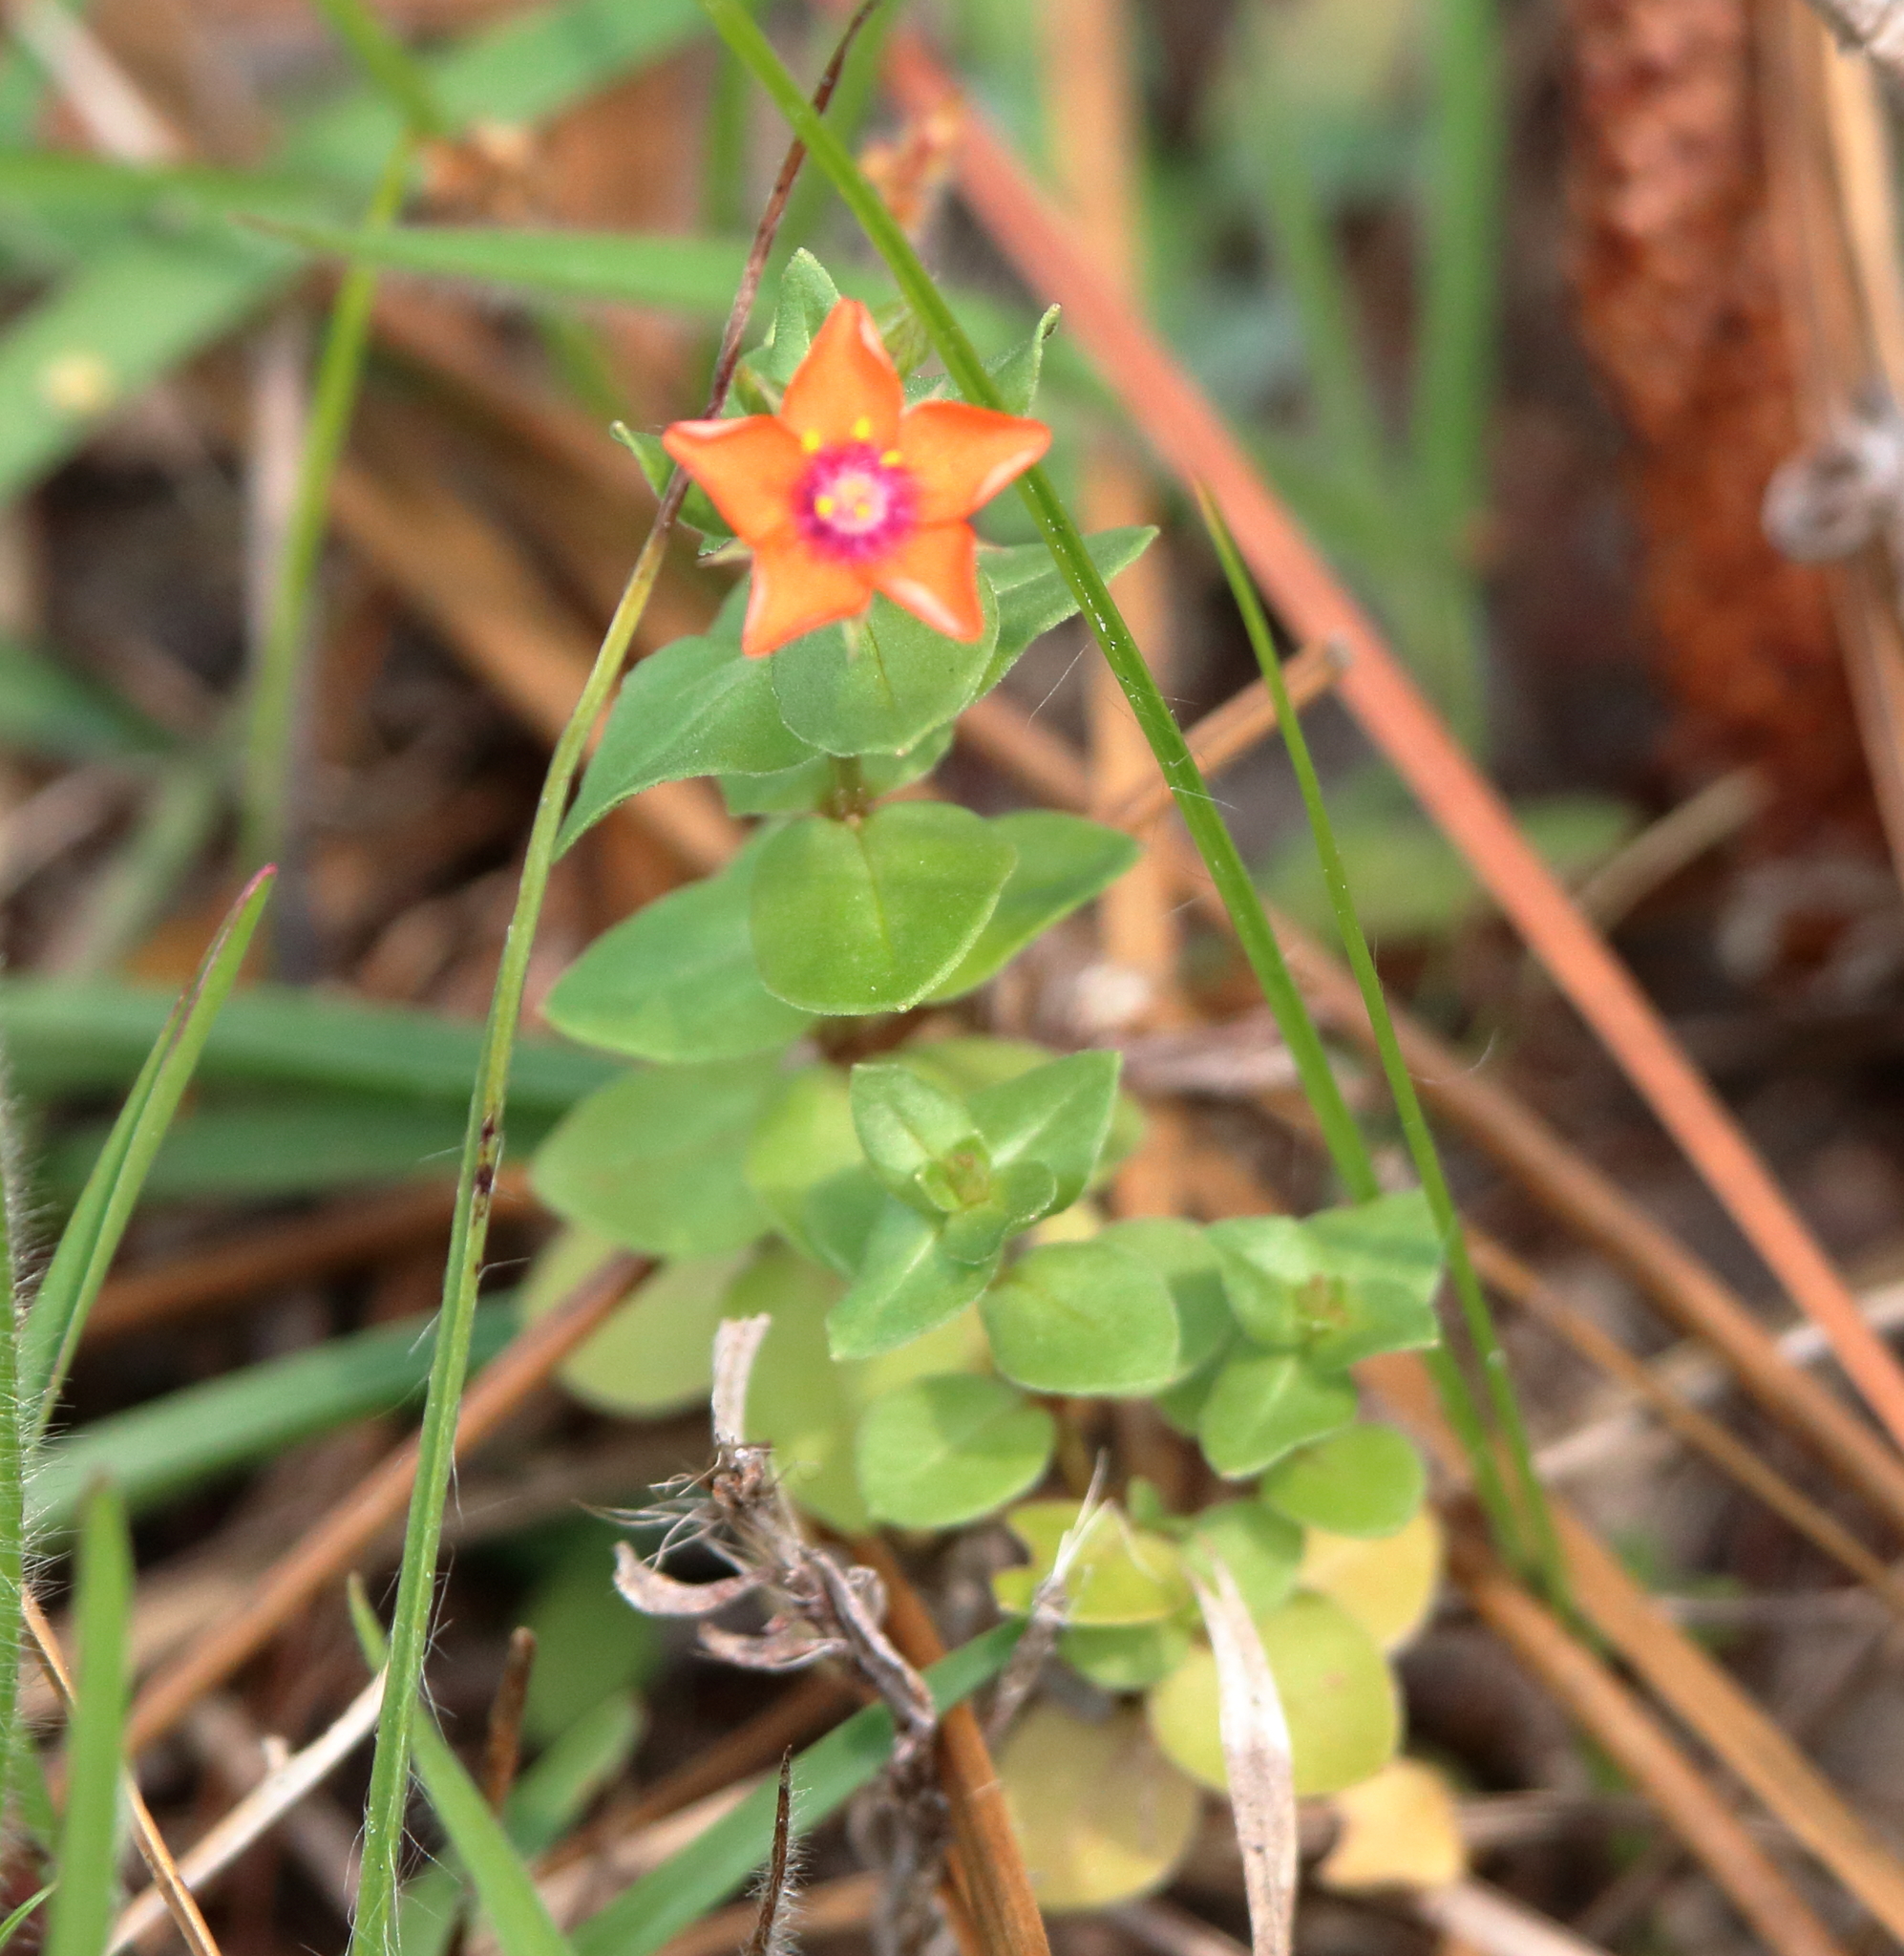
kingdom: Plantae
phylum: Tracheophyta
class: Magnoliopsida
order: Ericales
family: Primulaceae
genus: Lysimachia
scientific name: Lysimachia arvensis
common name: Scarlet pimpernel
